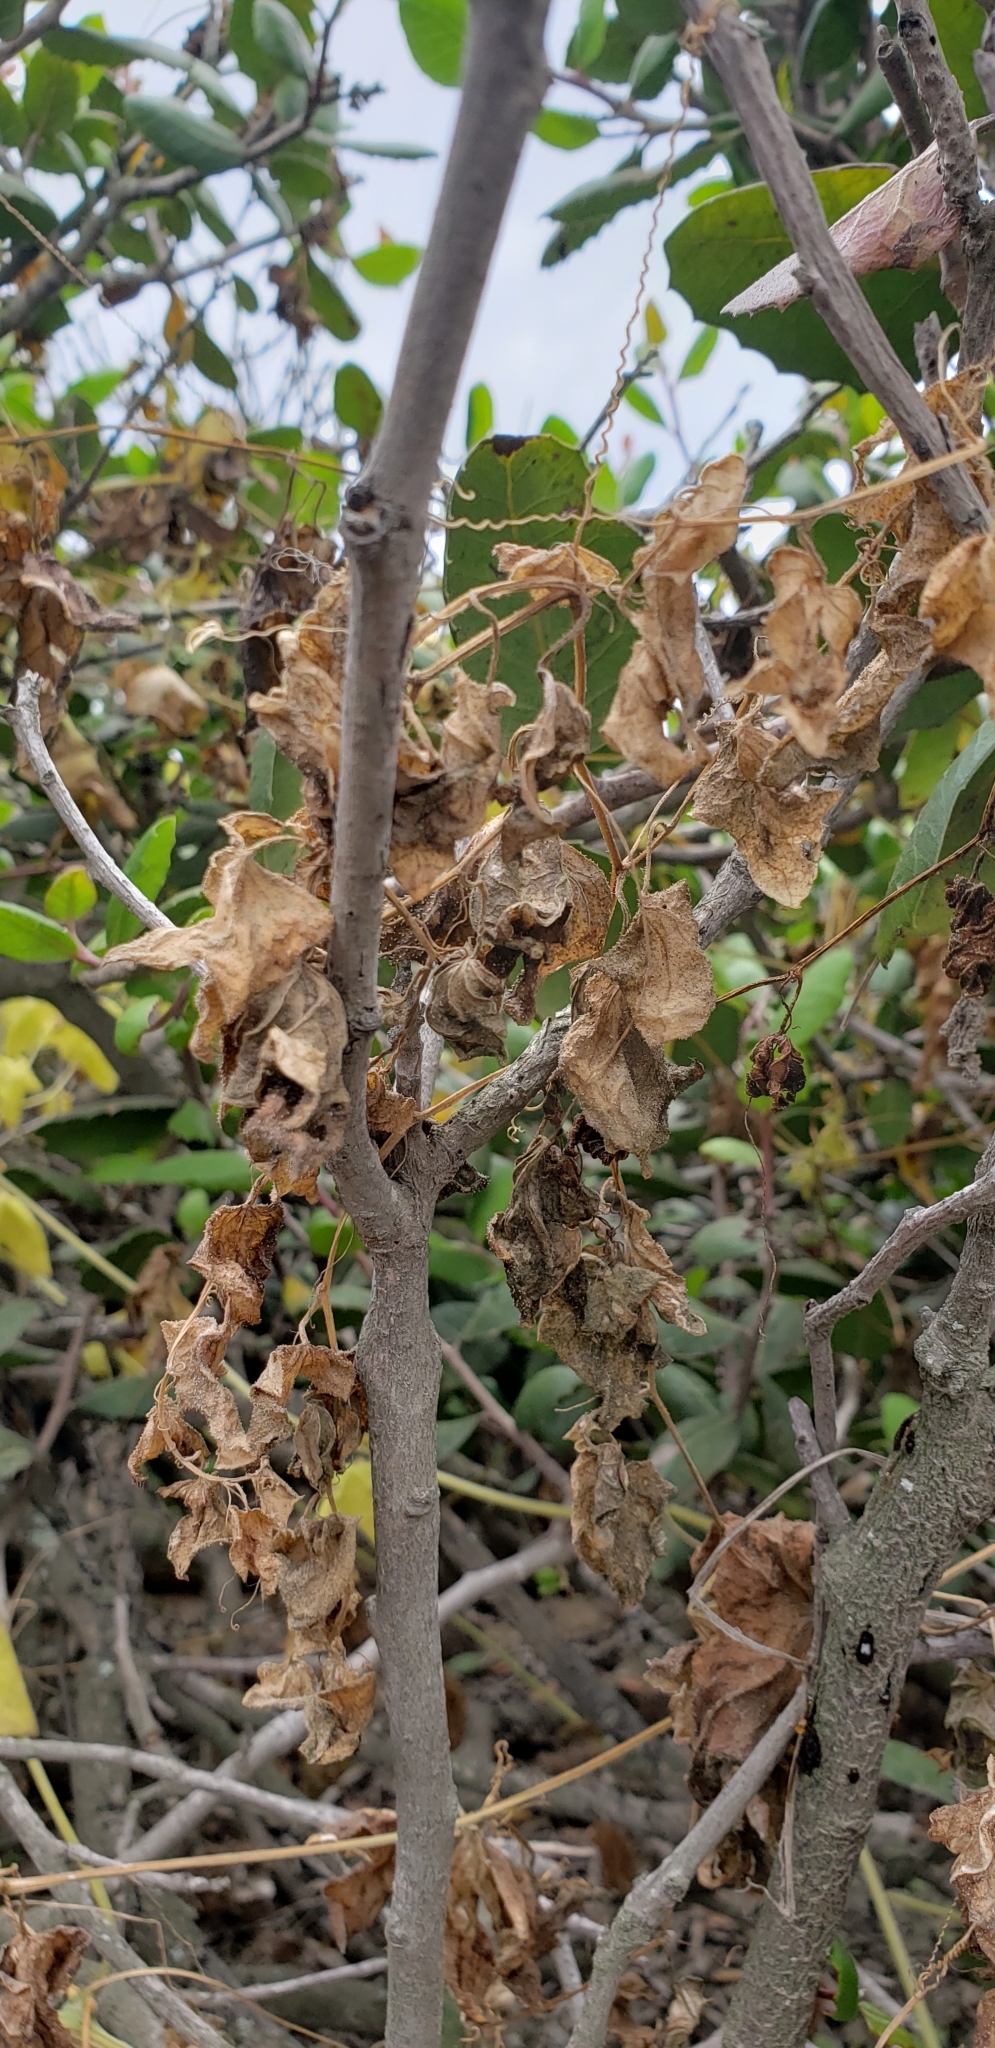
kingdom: Plantae
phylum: Tracheophyta
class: Magnoliopsida
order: Cucurbitales
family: Cucurbitaceae
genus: Marah
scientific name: Marah macrocarpa
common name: Cucamonga manroot
